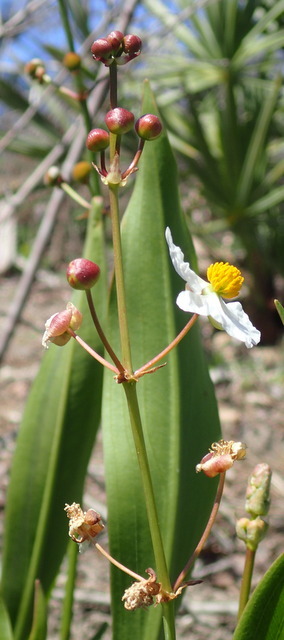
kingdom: Plantae
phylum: Tracheophyta
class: Liliopsida
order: Alismatales
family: Alismataceae
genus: Sagittaria
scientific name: Sagittaria lancifolia
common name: Lance-leaf arrowhead
